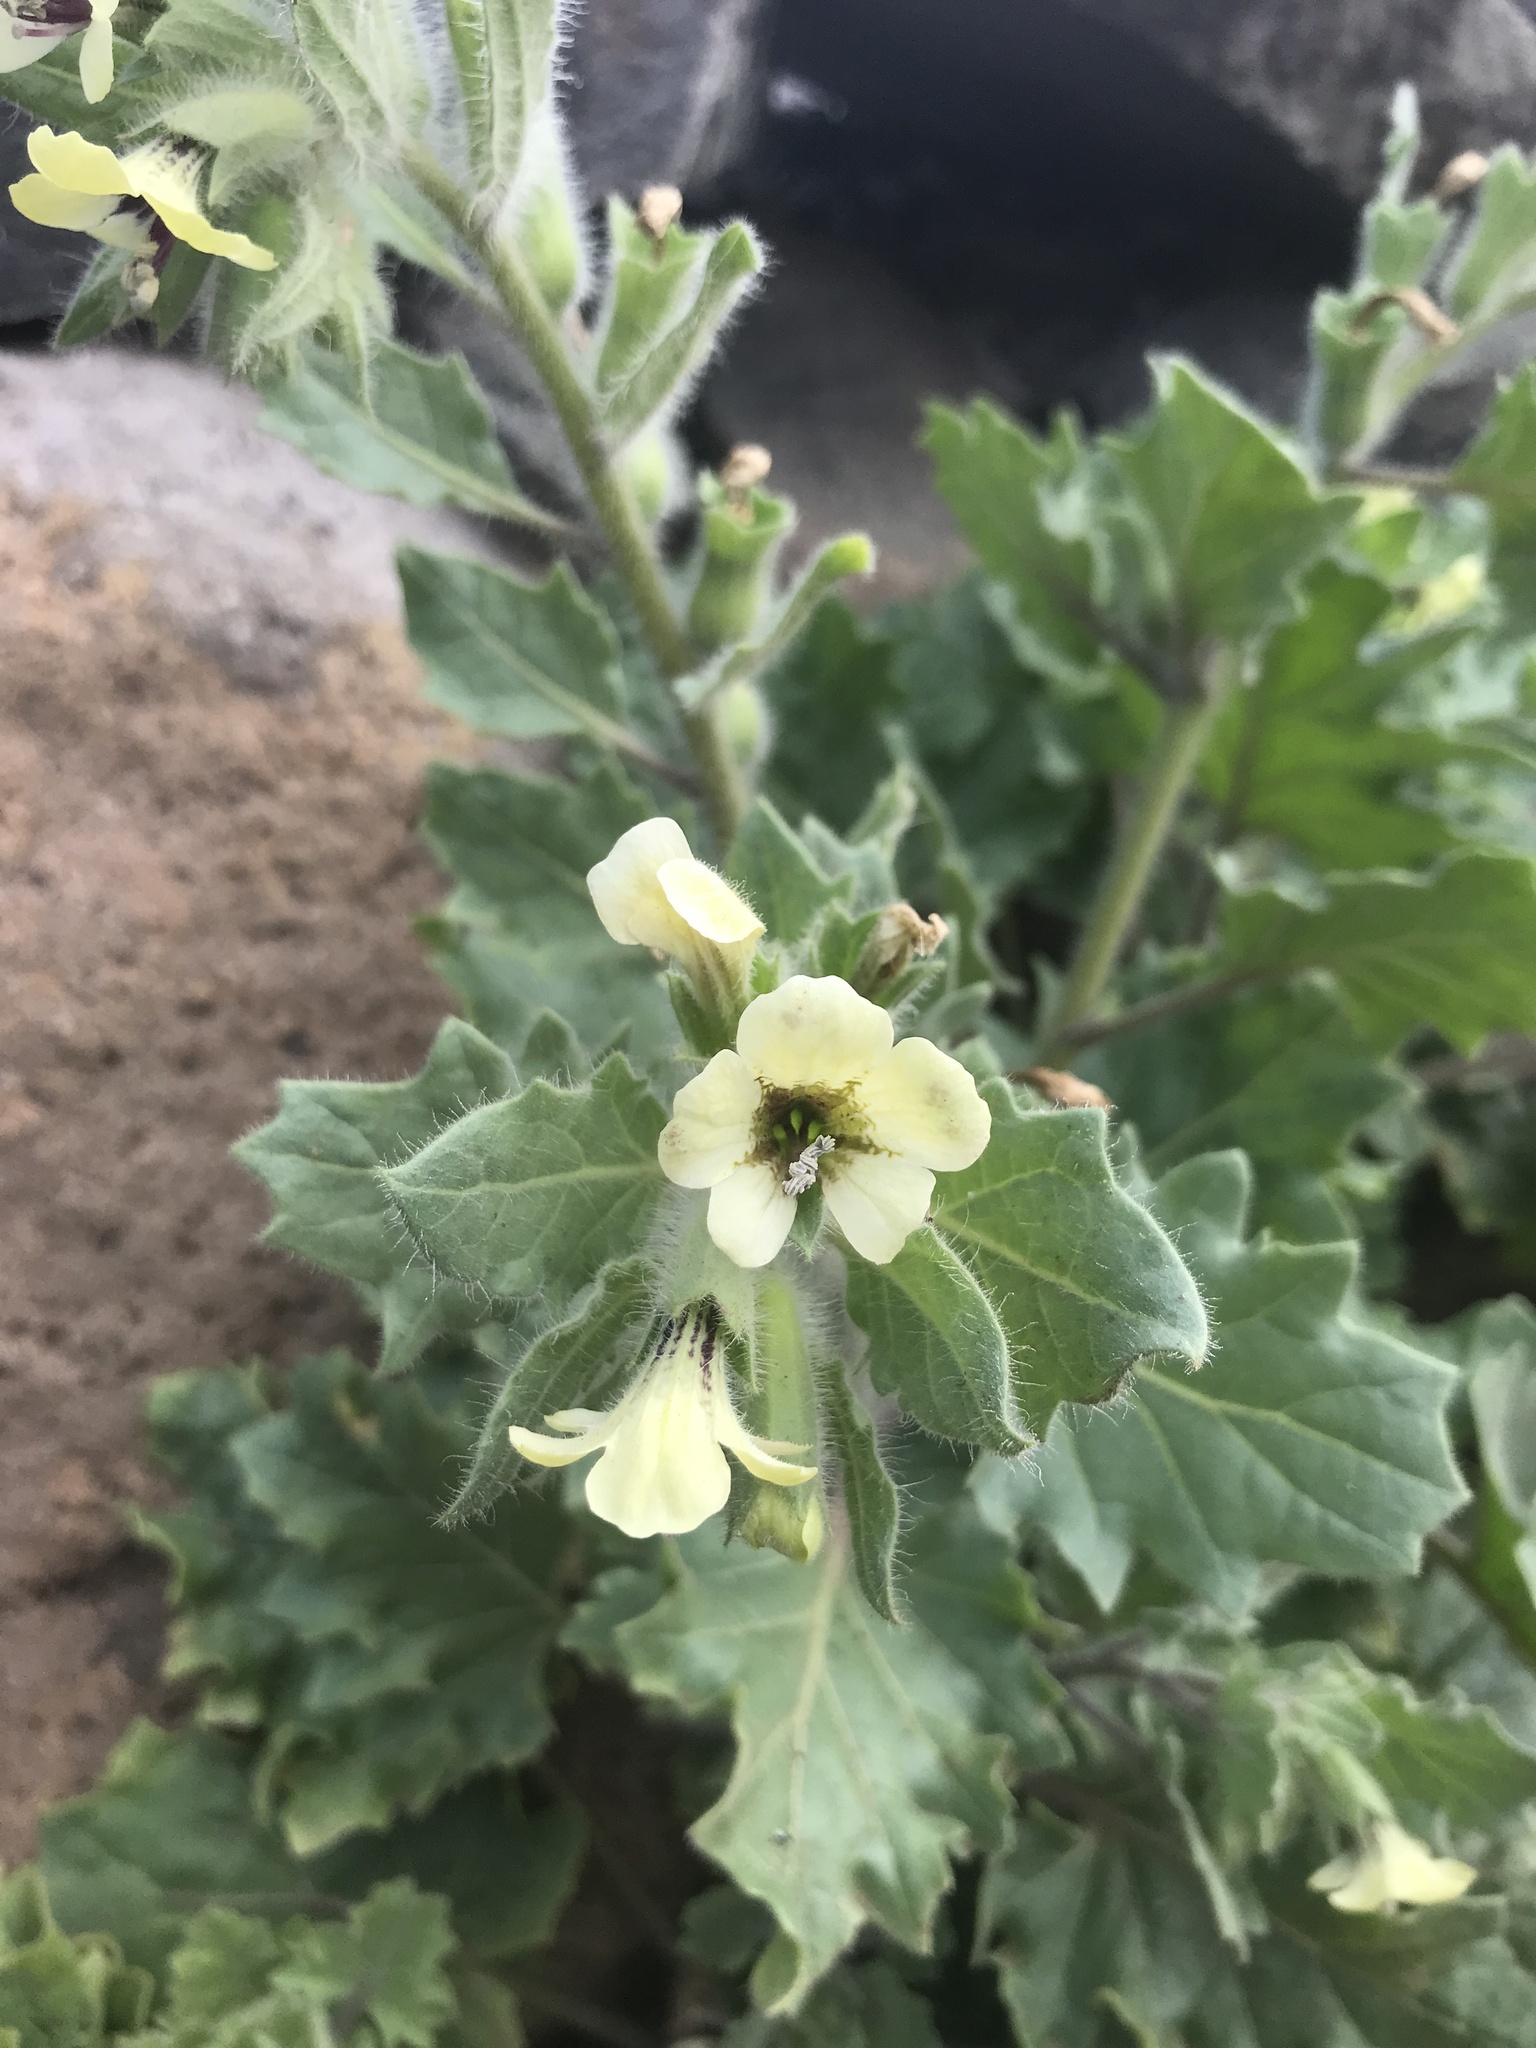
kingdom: Plantae
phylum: Tracheophyta
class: Magnoliopsida
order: Solanales
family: Solanaceae
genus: Hyoscyamus
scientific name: Hyoscyamus albus
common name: White henbane
